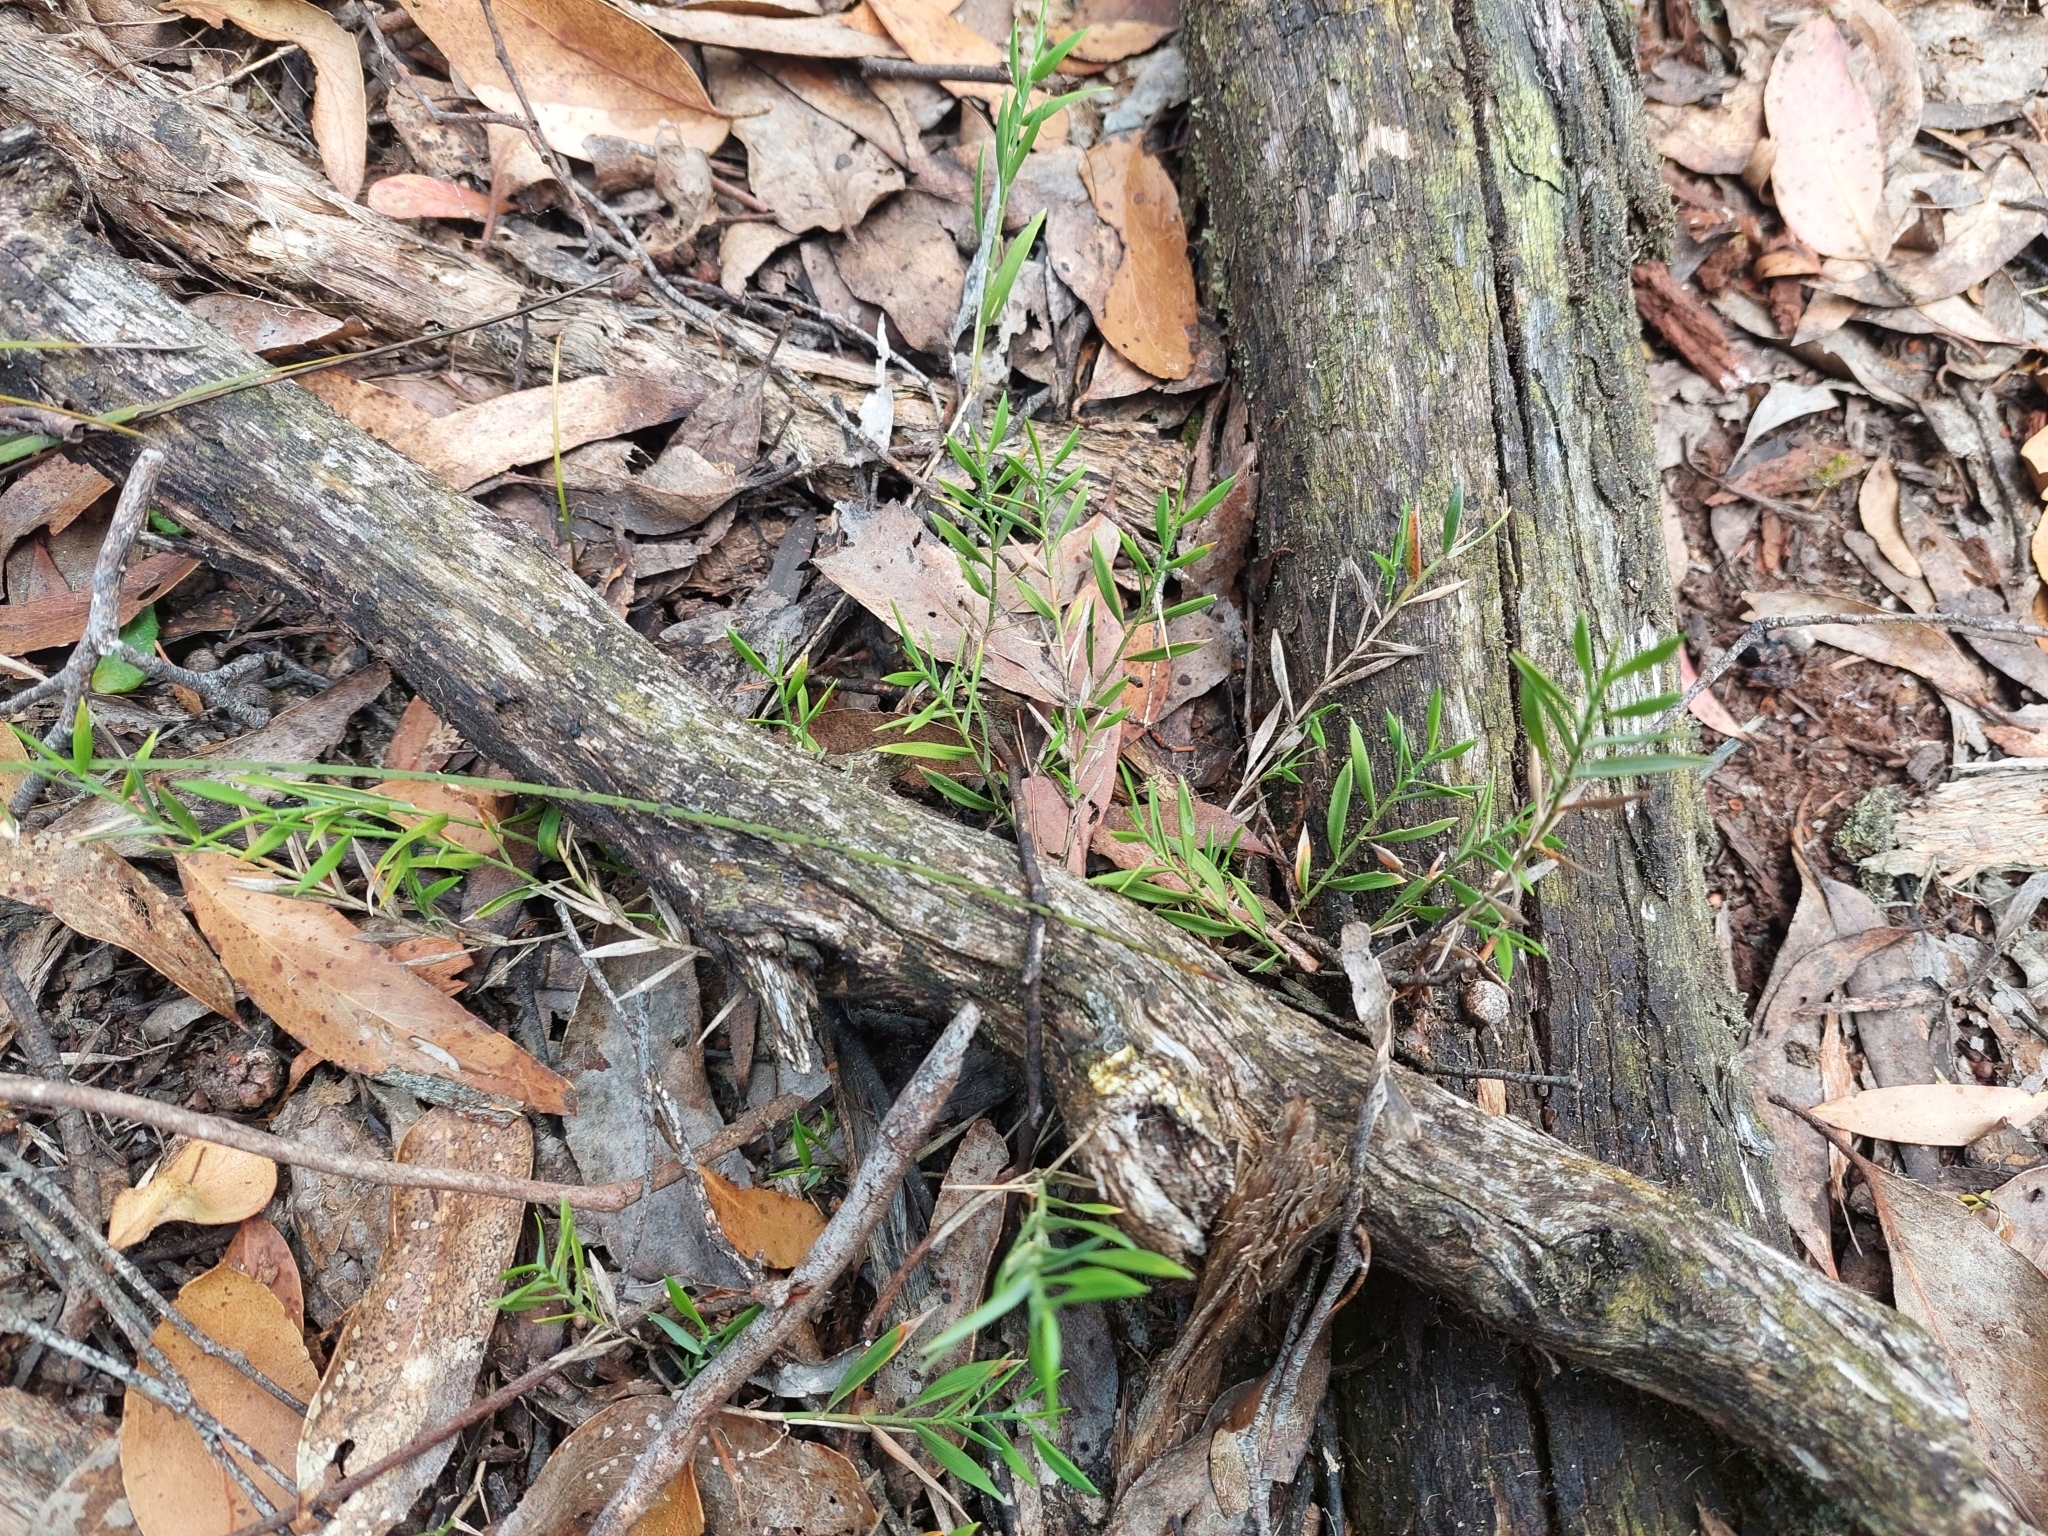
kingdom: Plantae
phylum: Tracheophyta
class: Liliopsida
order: Poales
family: Poaceae
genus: Tetrarrhena
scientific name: Tetrarrhena distichophylla
